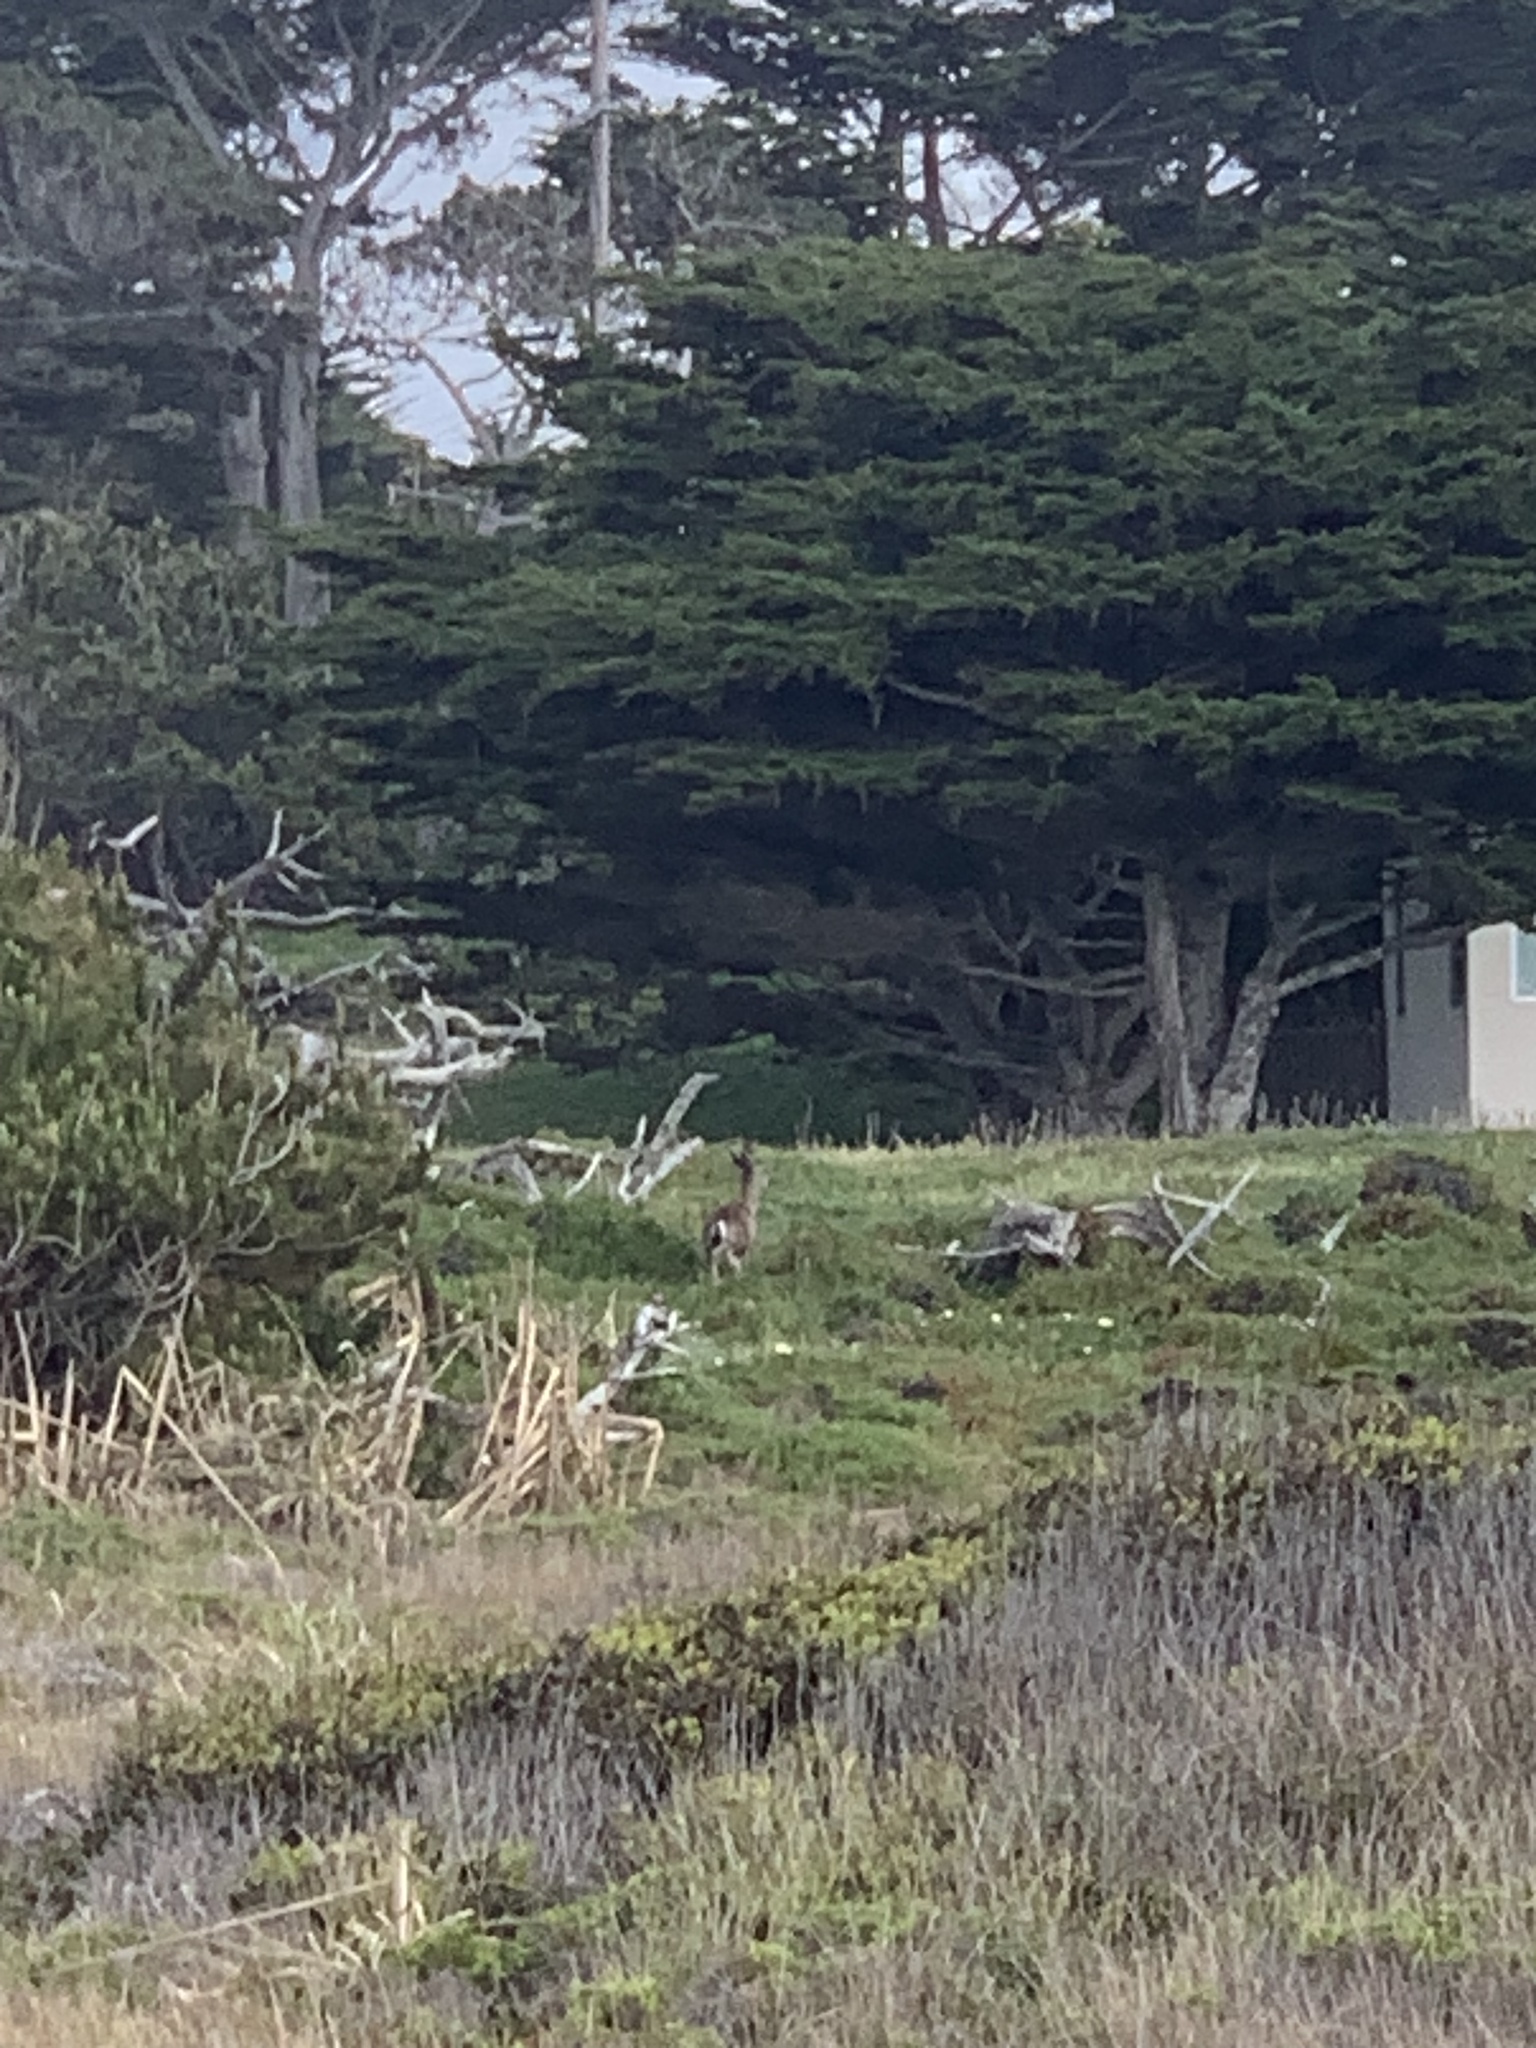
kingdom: Animalia
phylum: Chordata
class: Mammalia
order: Artiodactyla
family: Cervidae
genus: Odocoileus
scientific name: Odocoileus hemionus
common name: Mule deer
